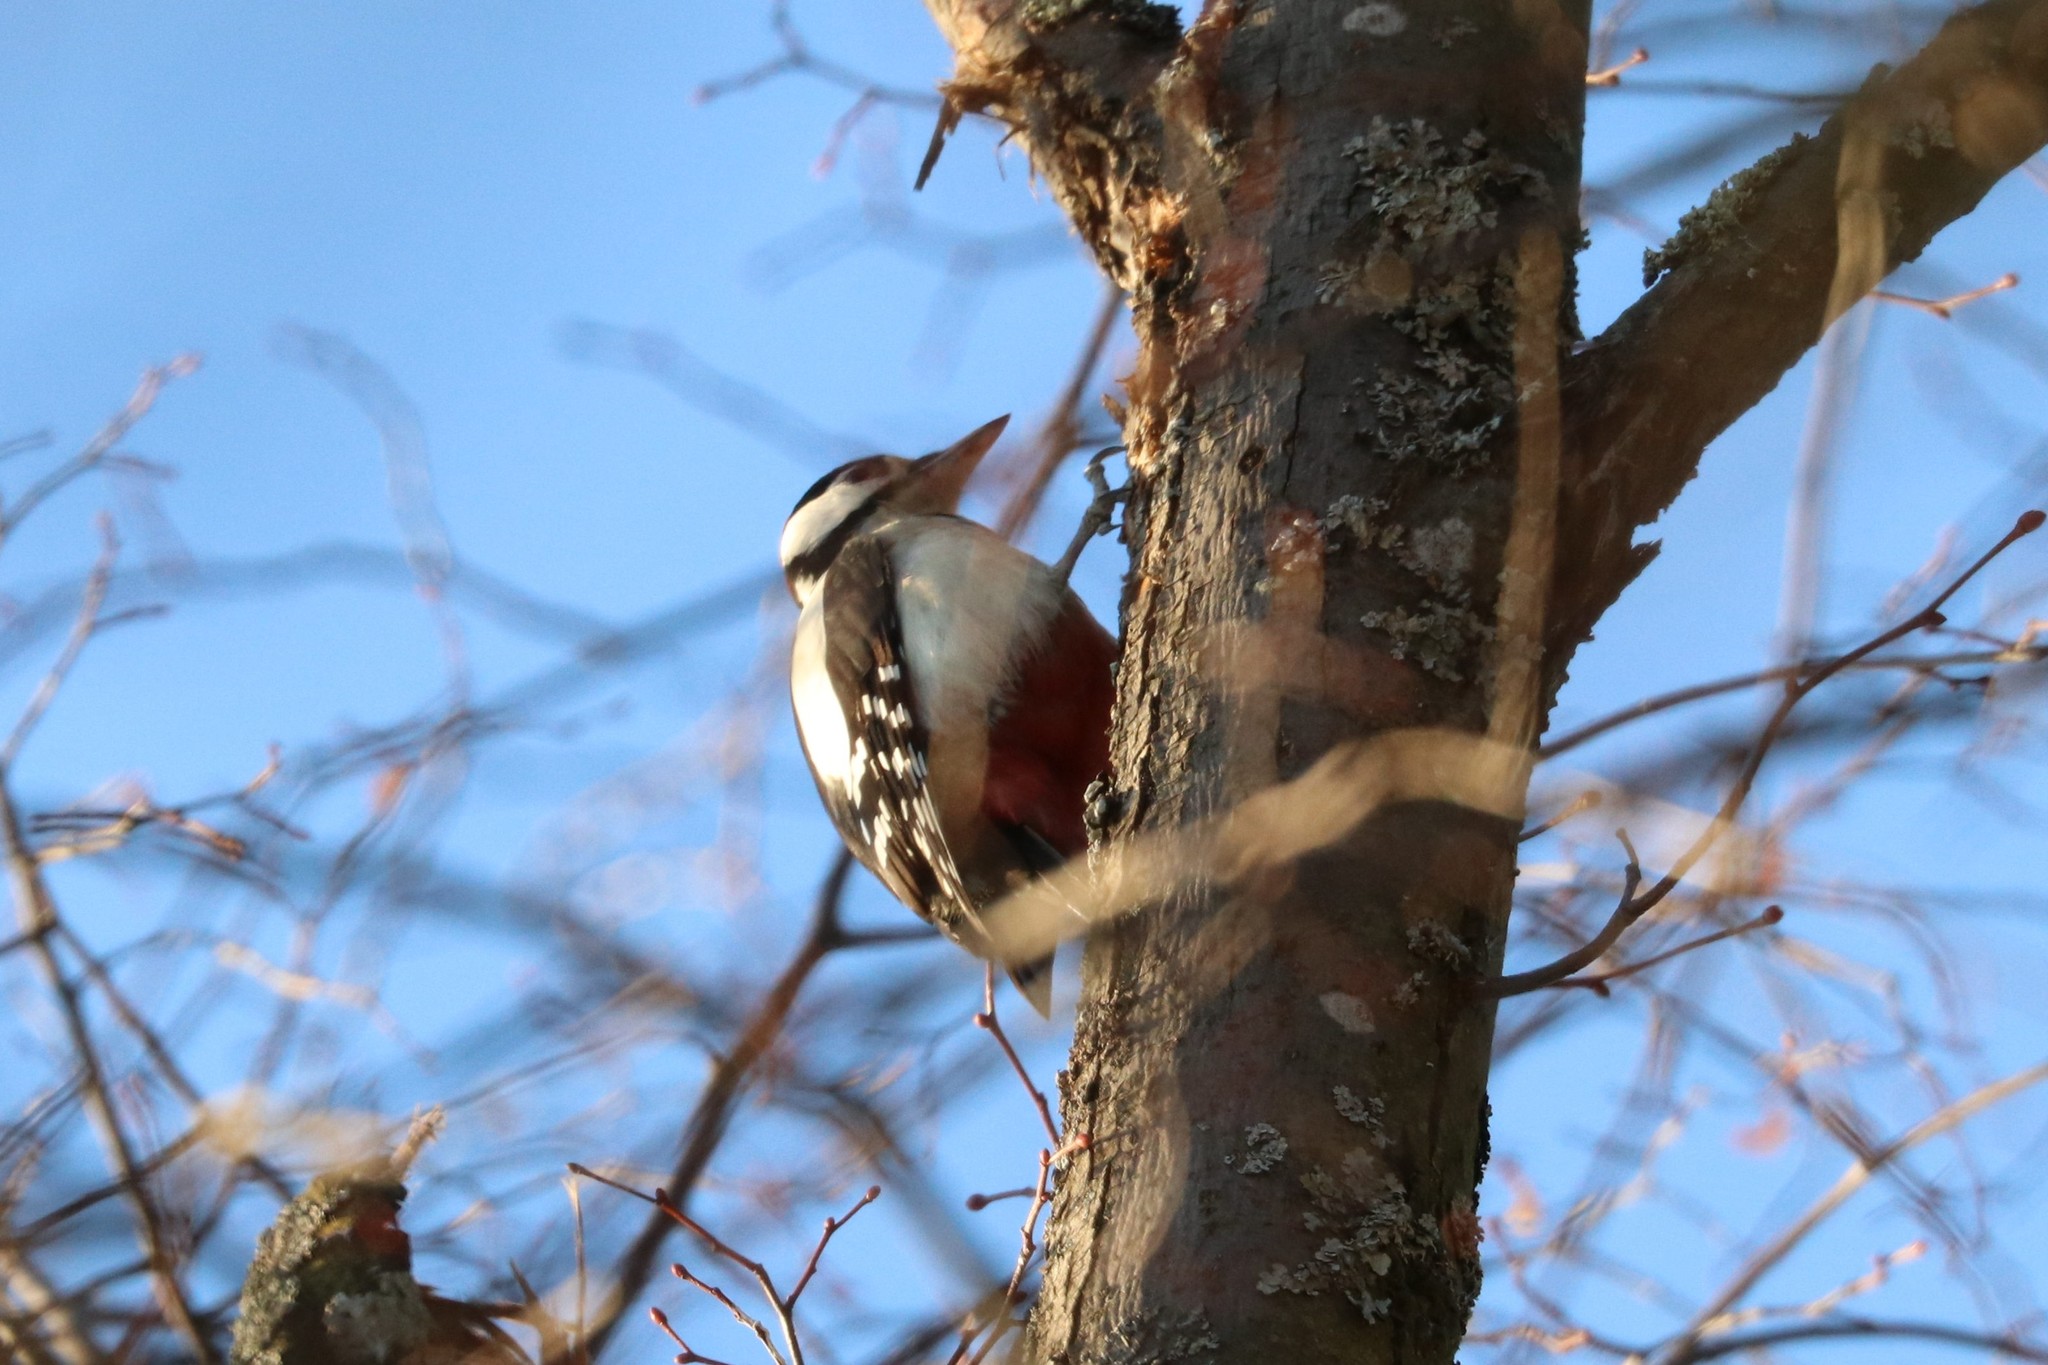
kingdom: Animalia
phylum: Chordata
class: Aves
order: Piciformes
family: Picidae
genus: Dendrocopos
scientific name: Dendrocopos major
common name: Great spotted woodpecker
